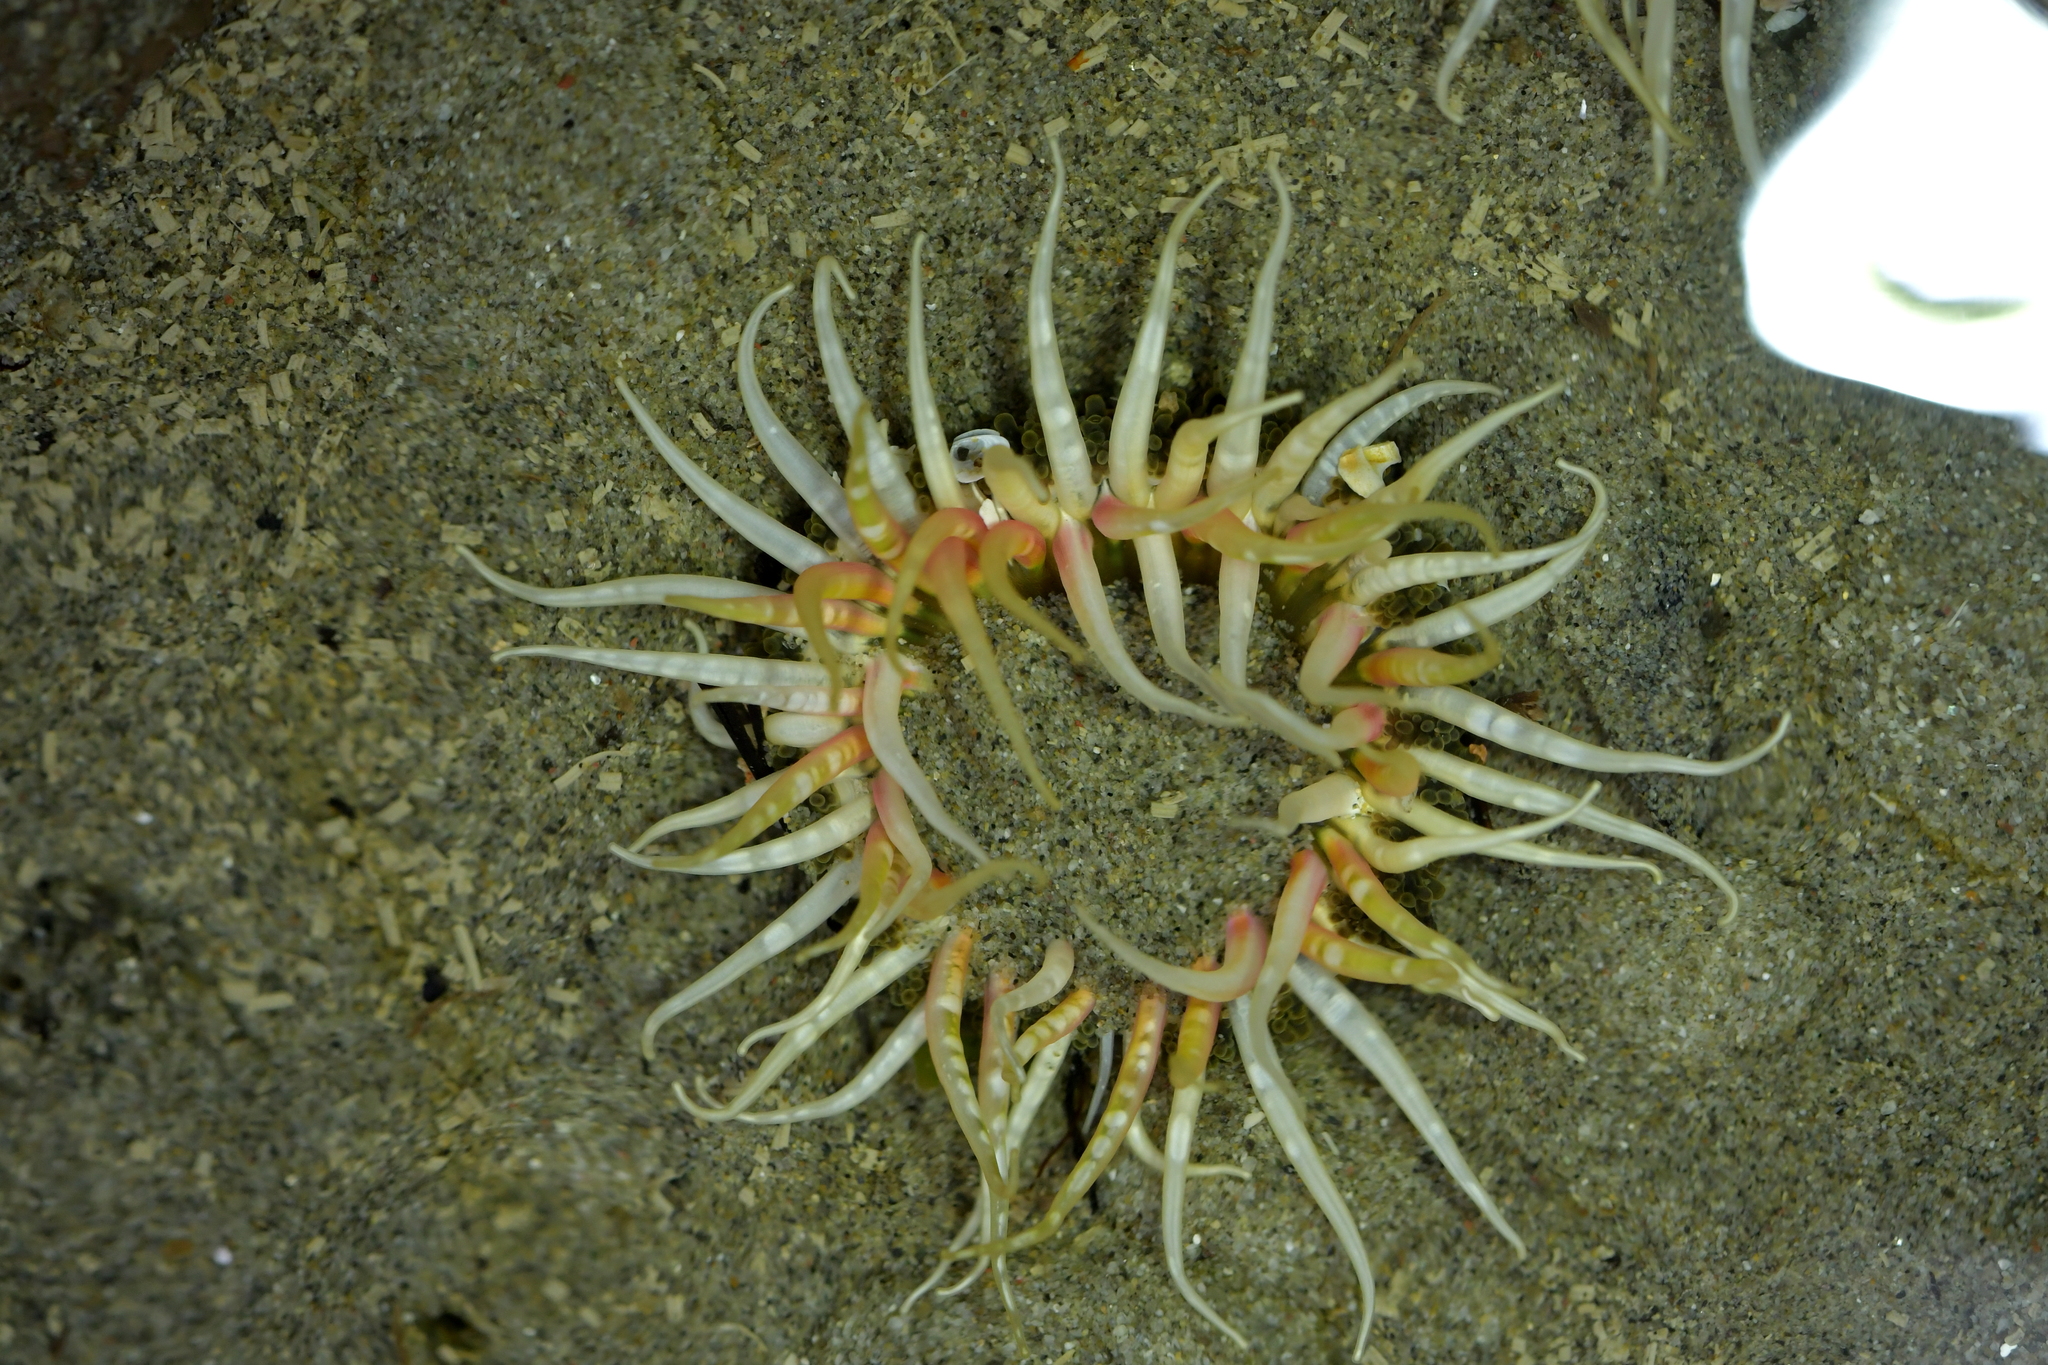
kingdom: Animalia
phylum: Cnidaria
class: Anthozoa
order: Actiniaria
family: Actiniidae
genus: Oulactis
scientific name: Oulactis muscosa
